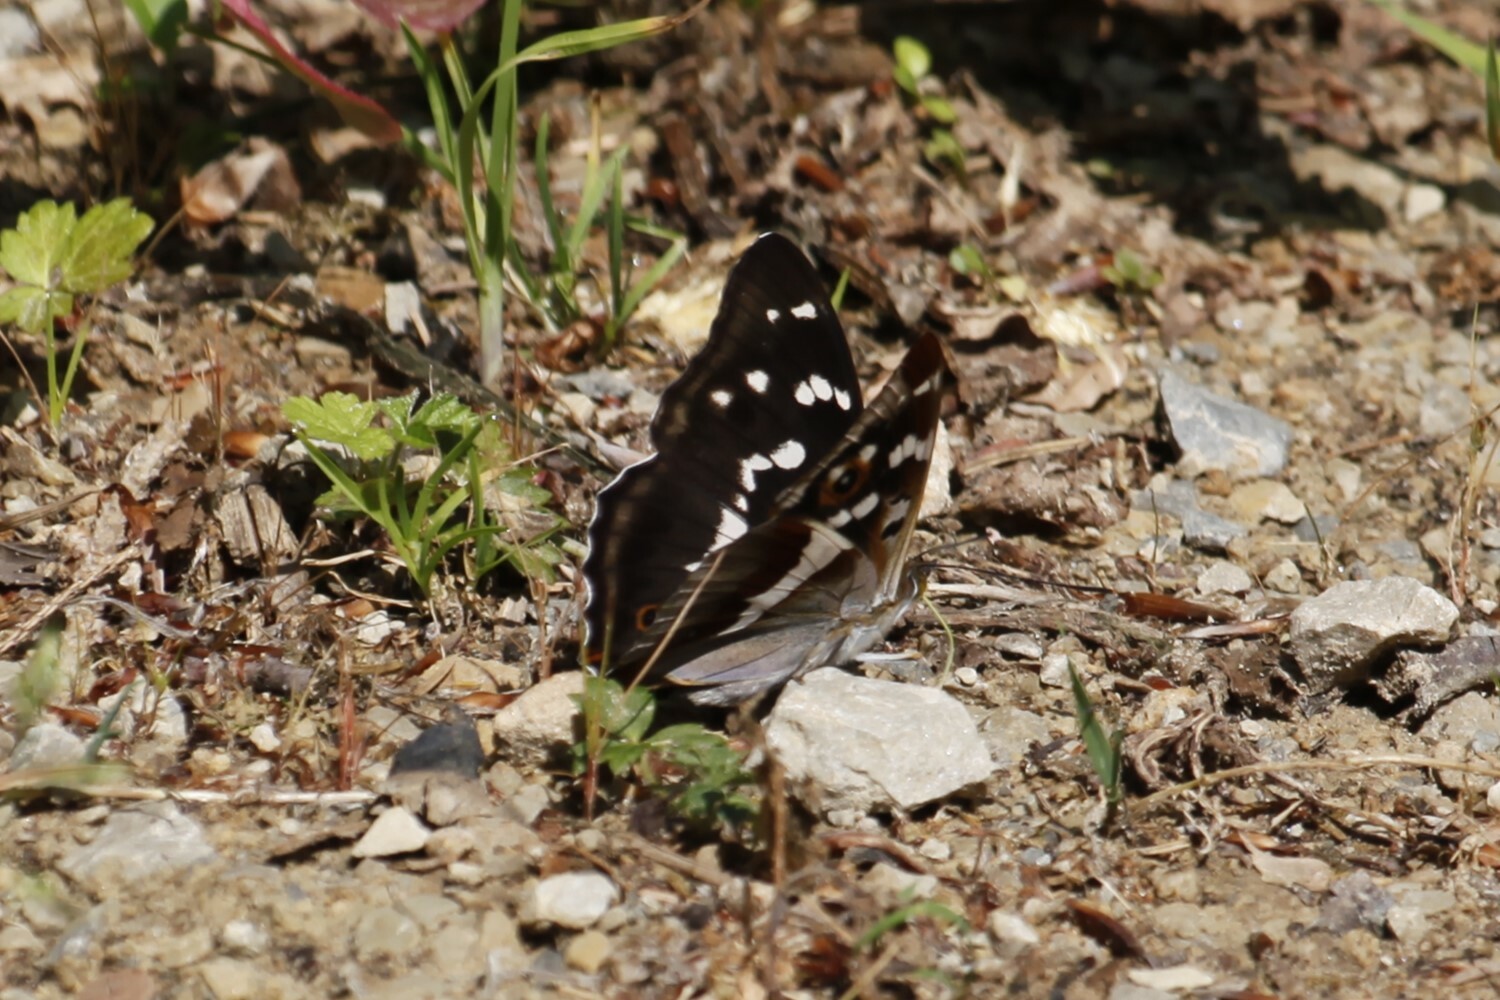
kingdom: Animalia
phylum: Arthropoda
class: Insecta
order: Lepidoptera
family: Nymphalidae
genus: Apatura
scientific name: Apatura iris
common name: Purple emperor
